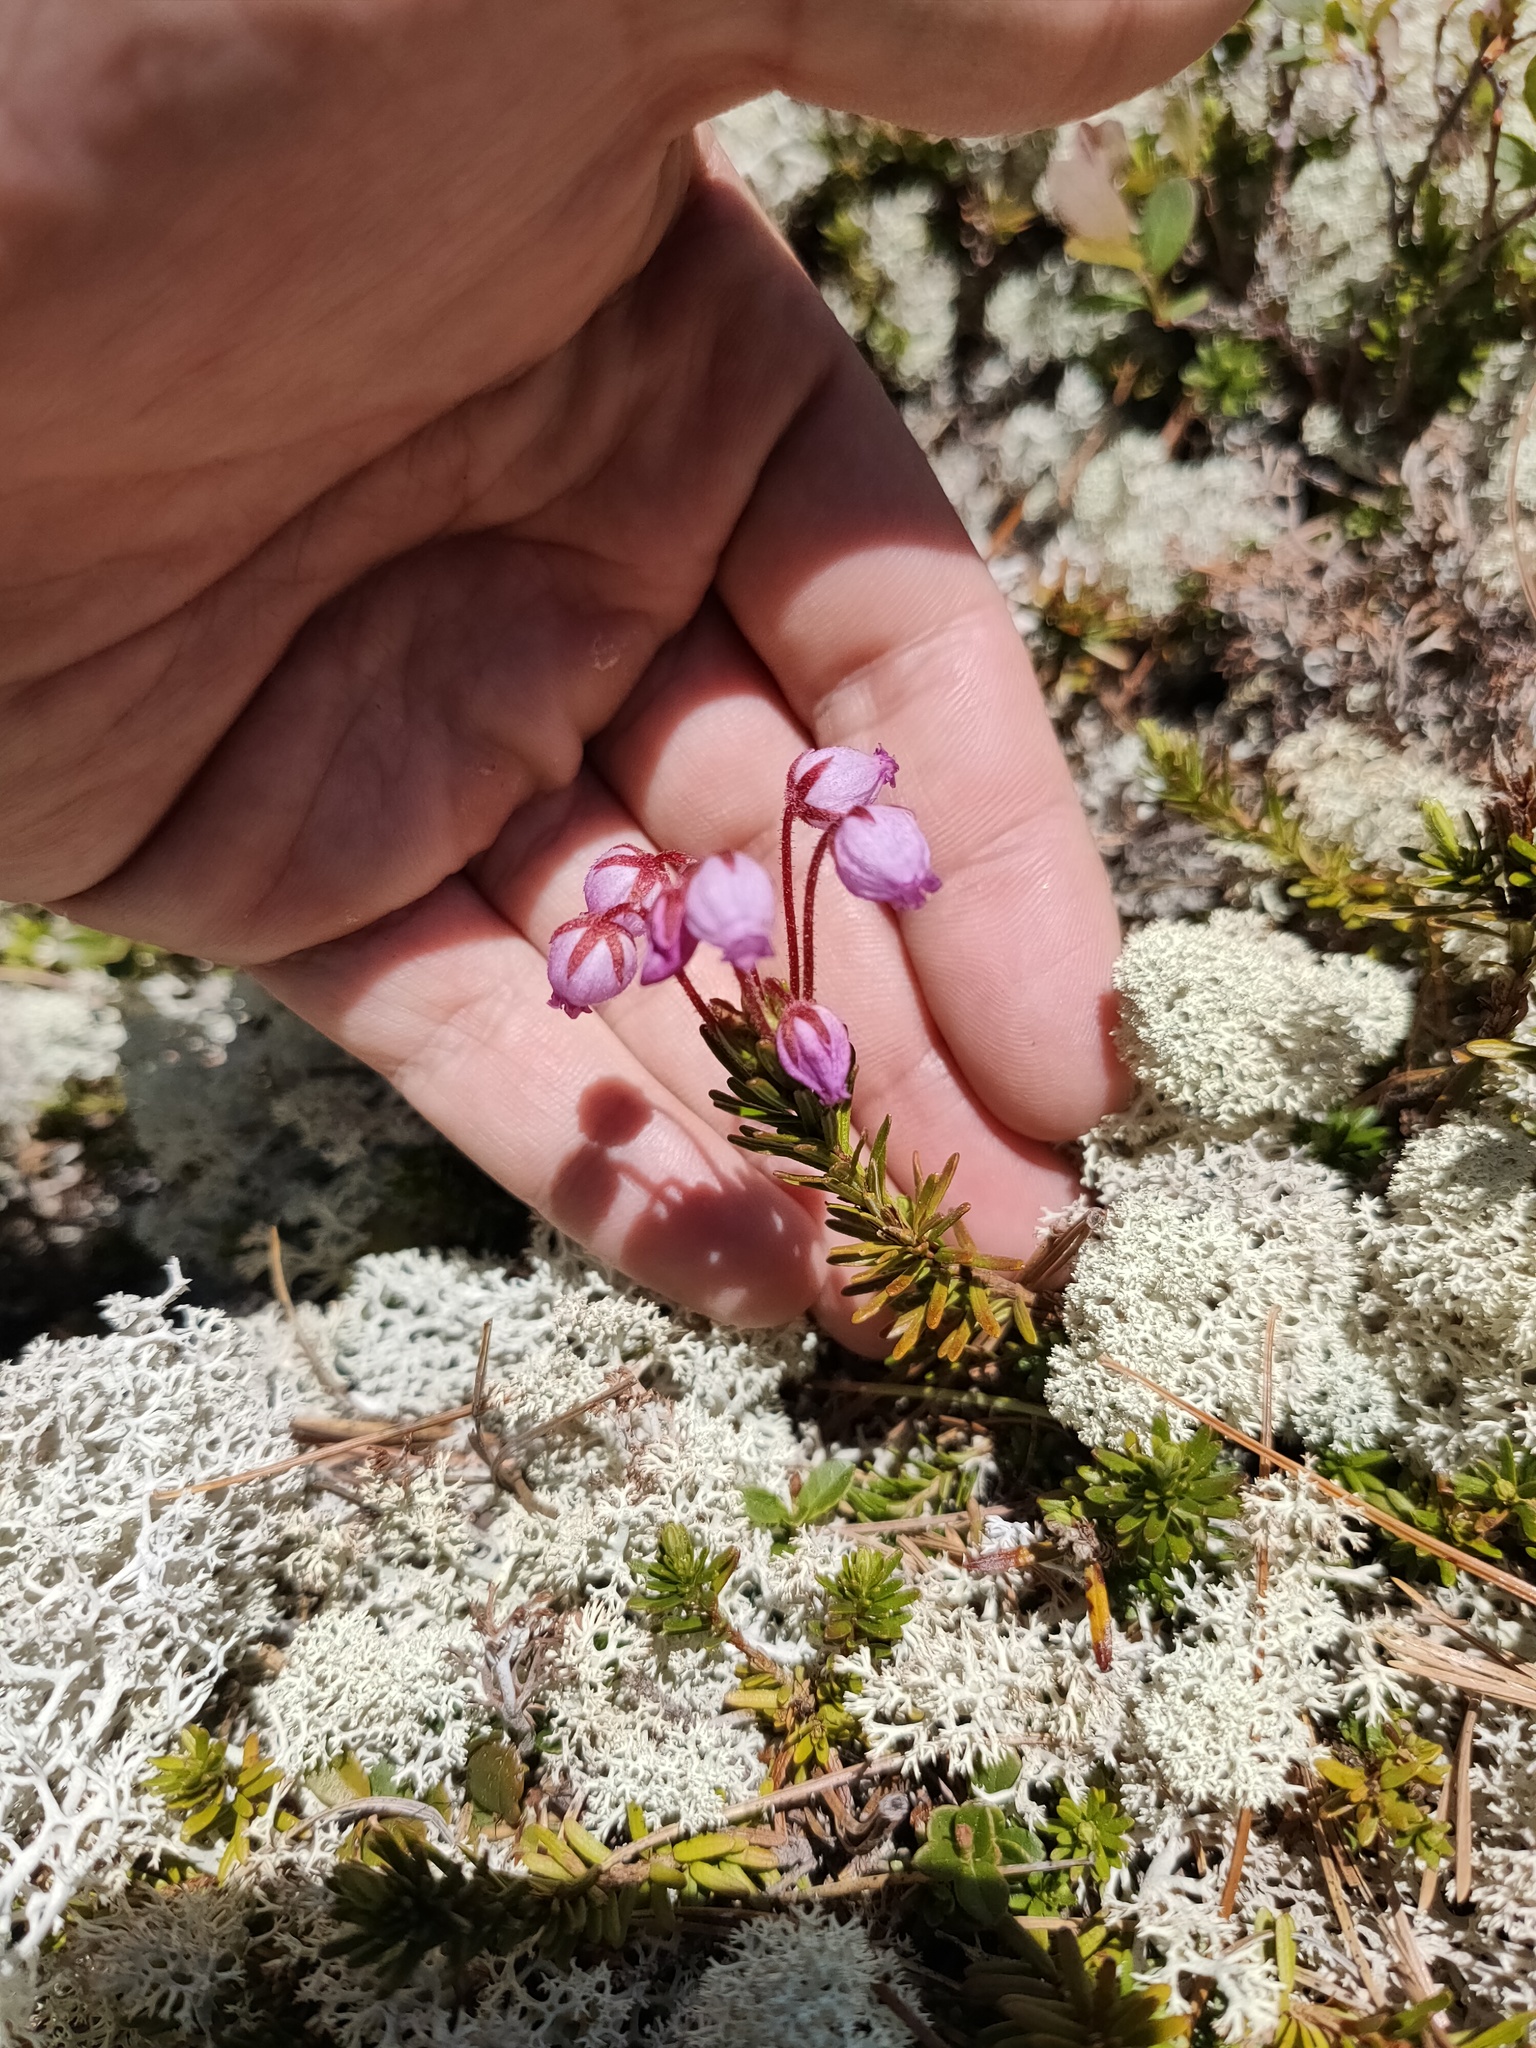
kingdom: Plantae
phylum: Tracheophyta
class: Magnoliopsida
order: Ericales
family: Ericaceae
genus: Phyllodoce
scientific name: Phyllodoce caerulea
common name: Blue heath
